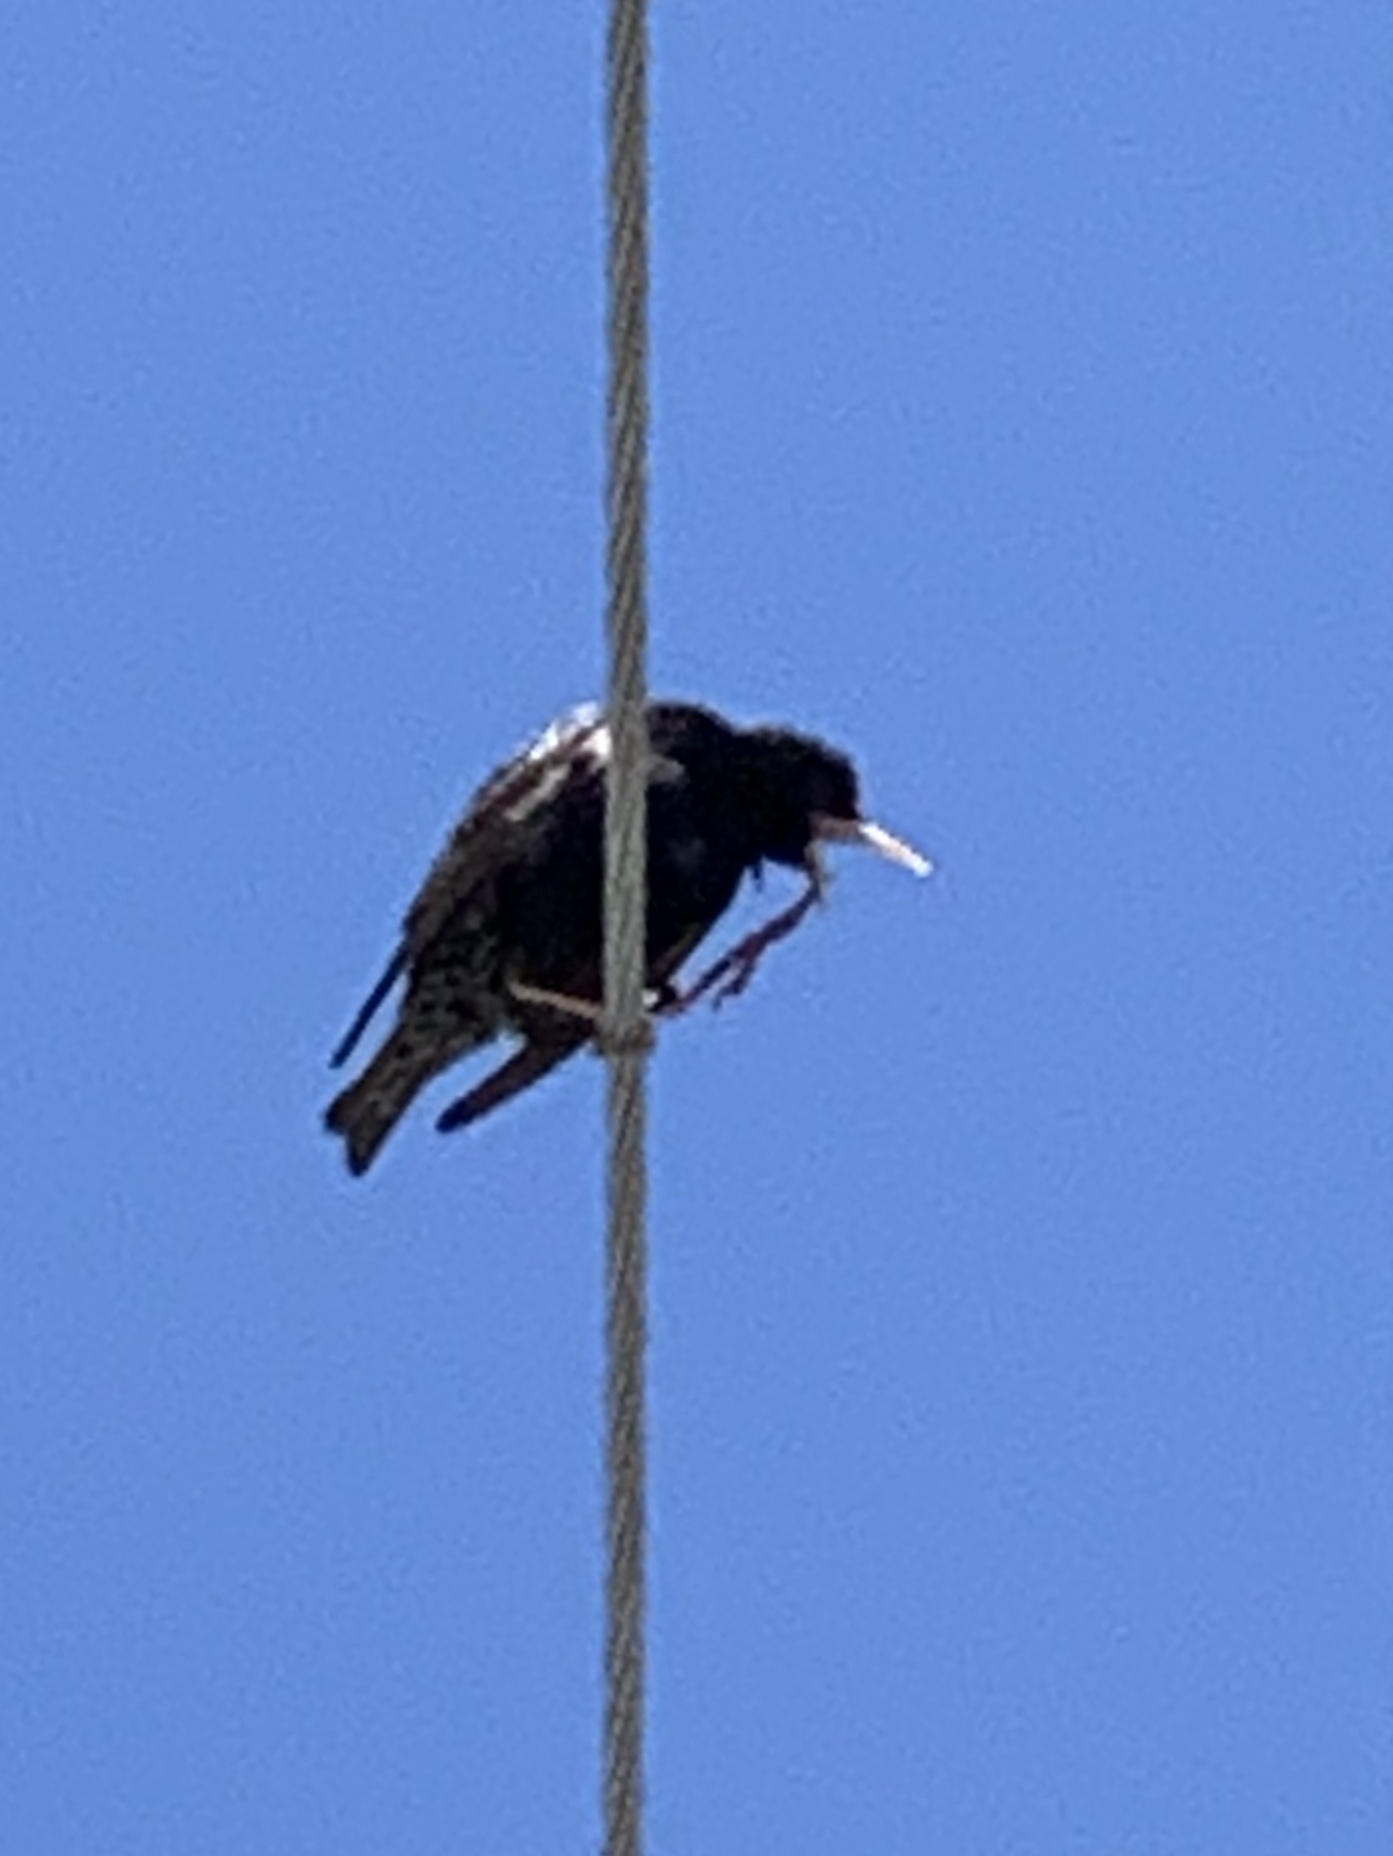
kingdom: Animalia
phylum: Chordata
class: Aves
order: Passeriformes
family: Sturnidae
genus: Sturnus
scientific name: Sturnus vulgaris
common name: Common starling
